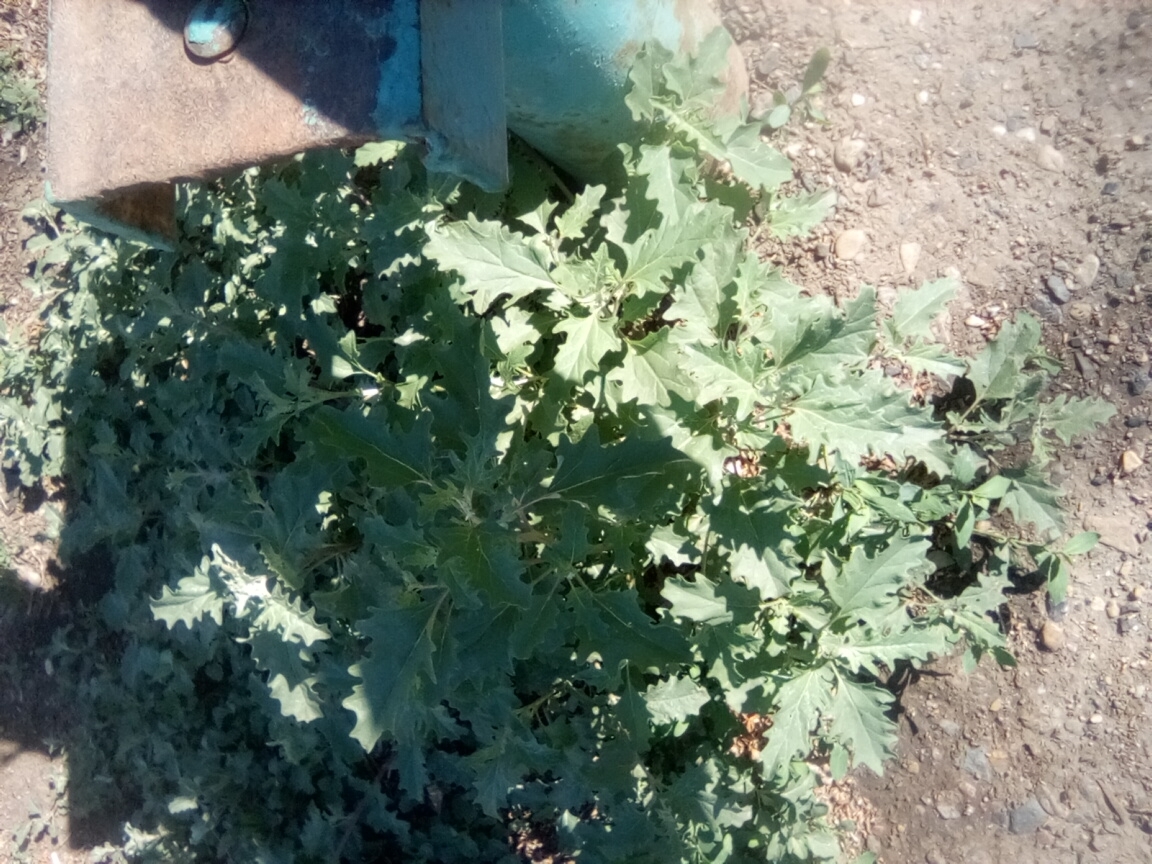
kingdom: Plantae
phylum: Tracheophyta
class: Magnoliopsida
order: Caryophyllales
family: Amaranthaceae
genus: Atriplex
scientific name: Atriplex tatarica
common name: Tatarian orache
